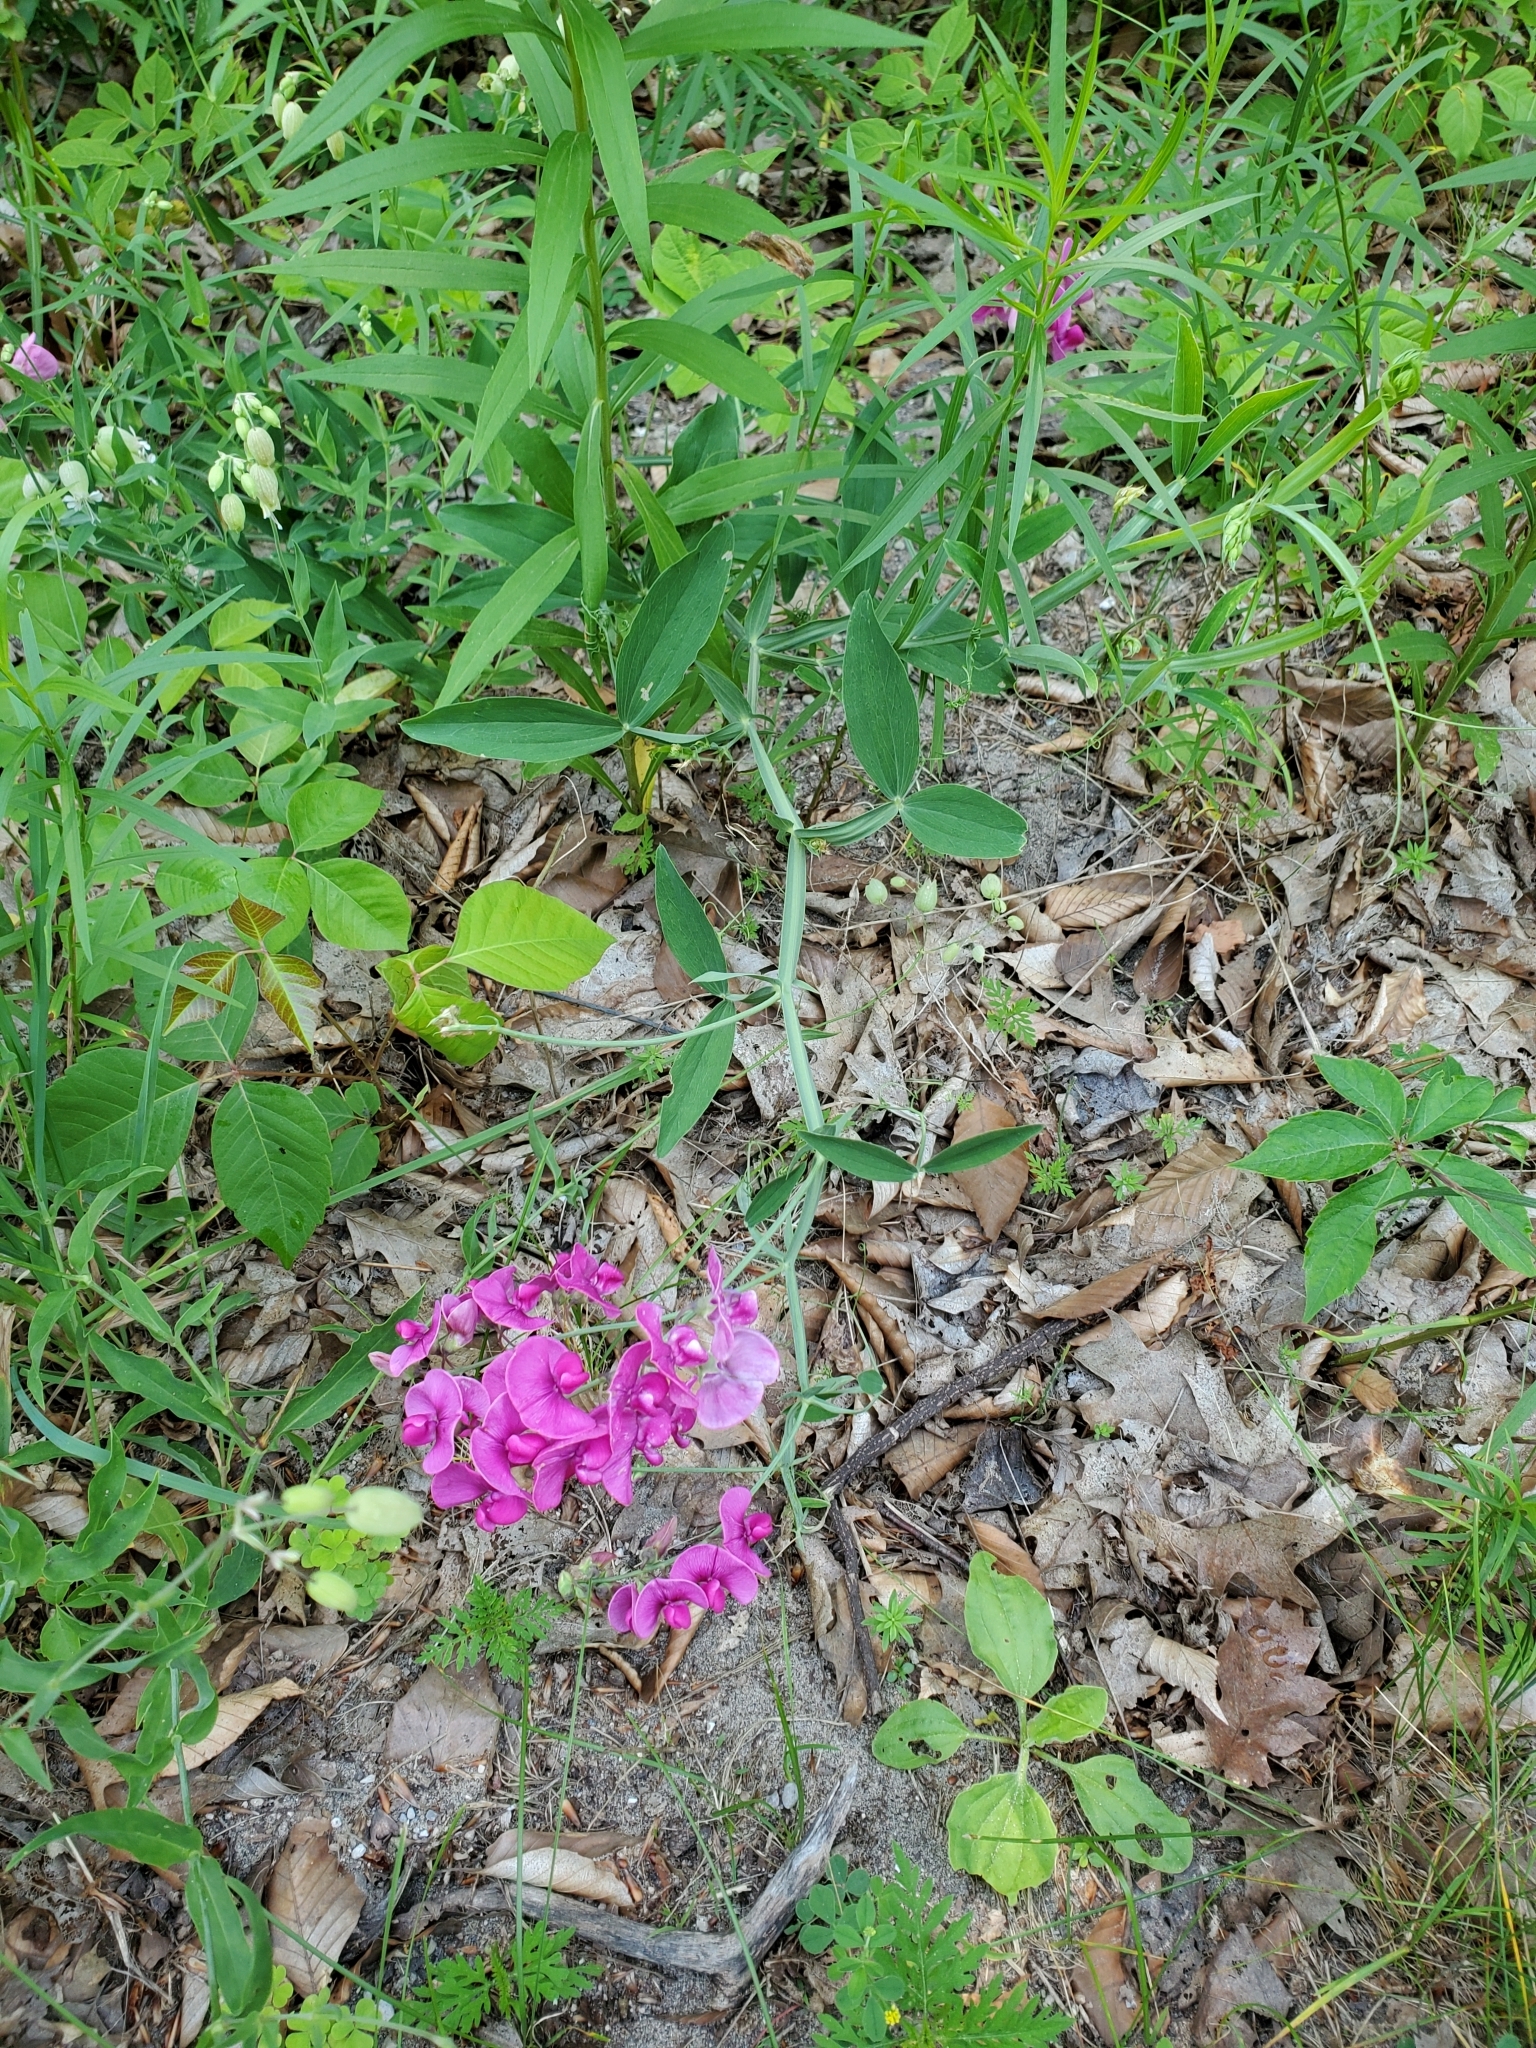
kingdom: Plantae
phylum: Tracheophyta
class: Magnoliopsida
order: Fabales
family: Fabaceae
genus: Lathyrus
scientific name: Lathyrus latifolius
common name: Perennial pea
